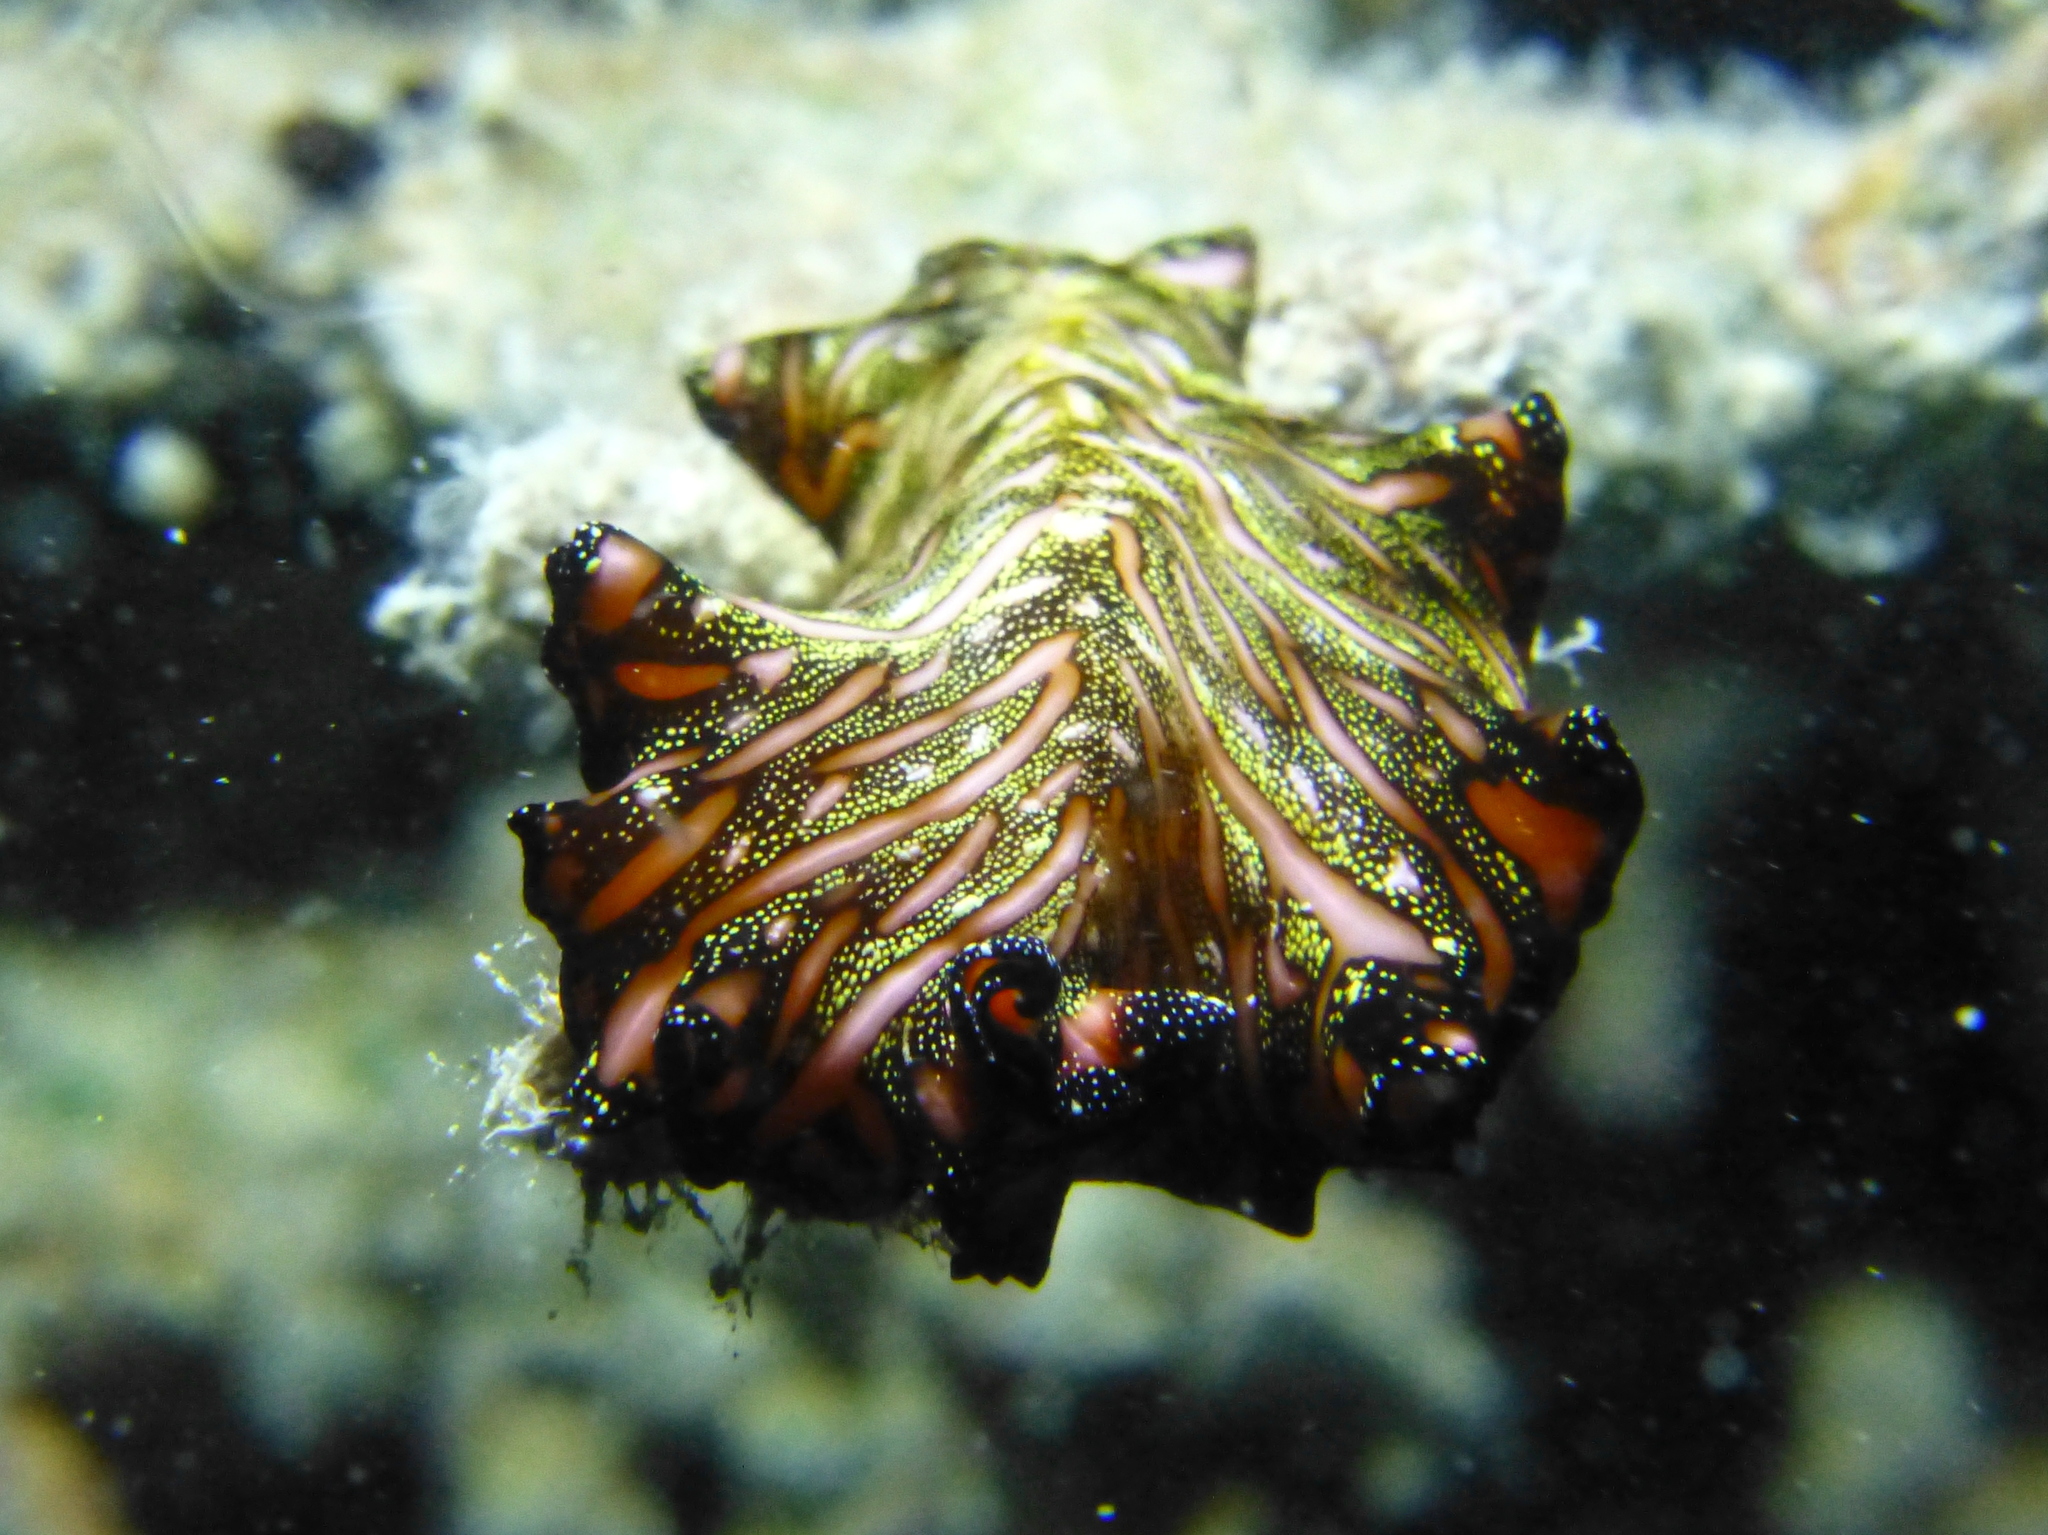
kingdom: Animalia
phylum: Platyhelminthes
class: Turbellaria
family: Pseudocerotidae
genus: Pseudobiceros
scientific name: Pseudobiceros bedfordi
